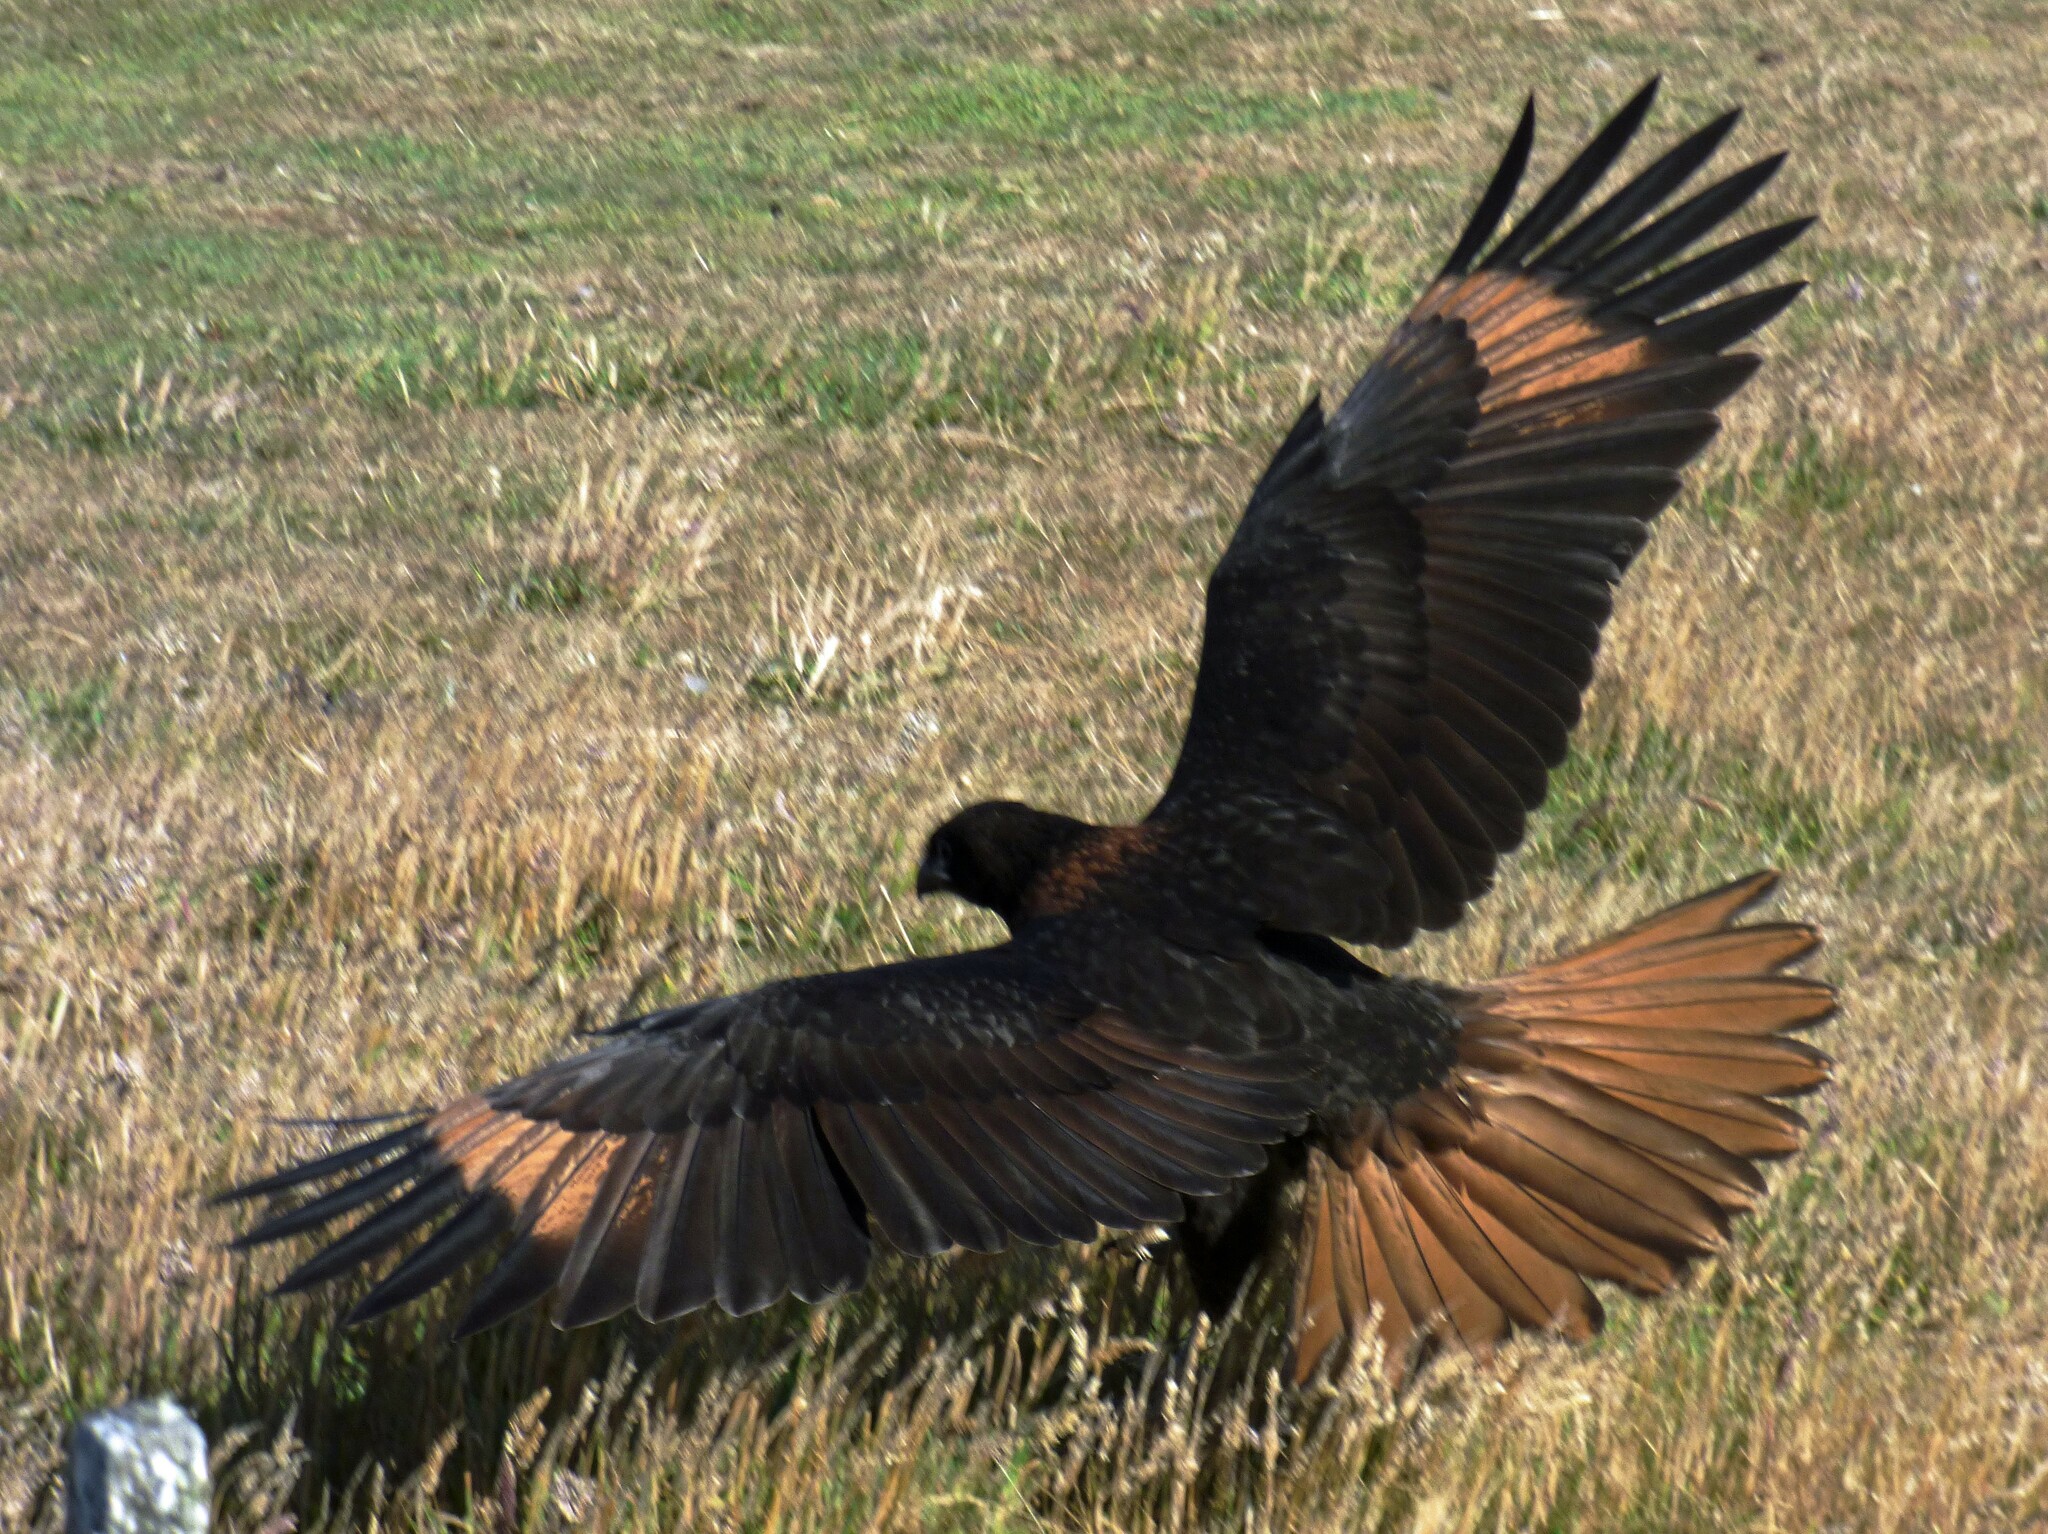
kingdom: Animalia
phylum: Chordata
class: Aves
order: Falconiformes
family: Falconidae
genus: Daptrius
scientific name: Daptrius
